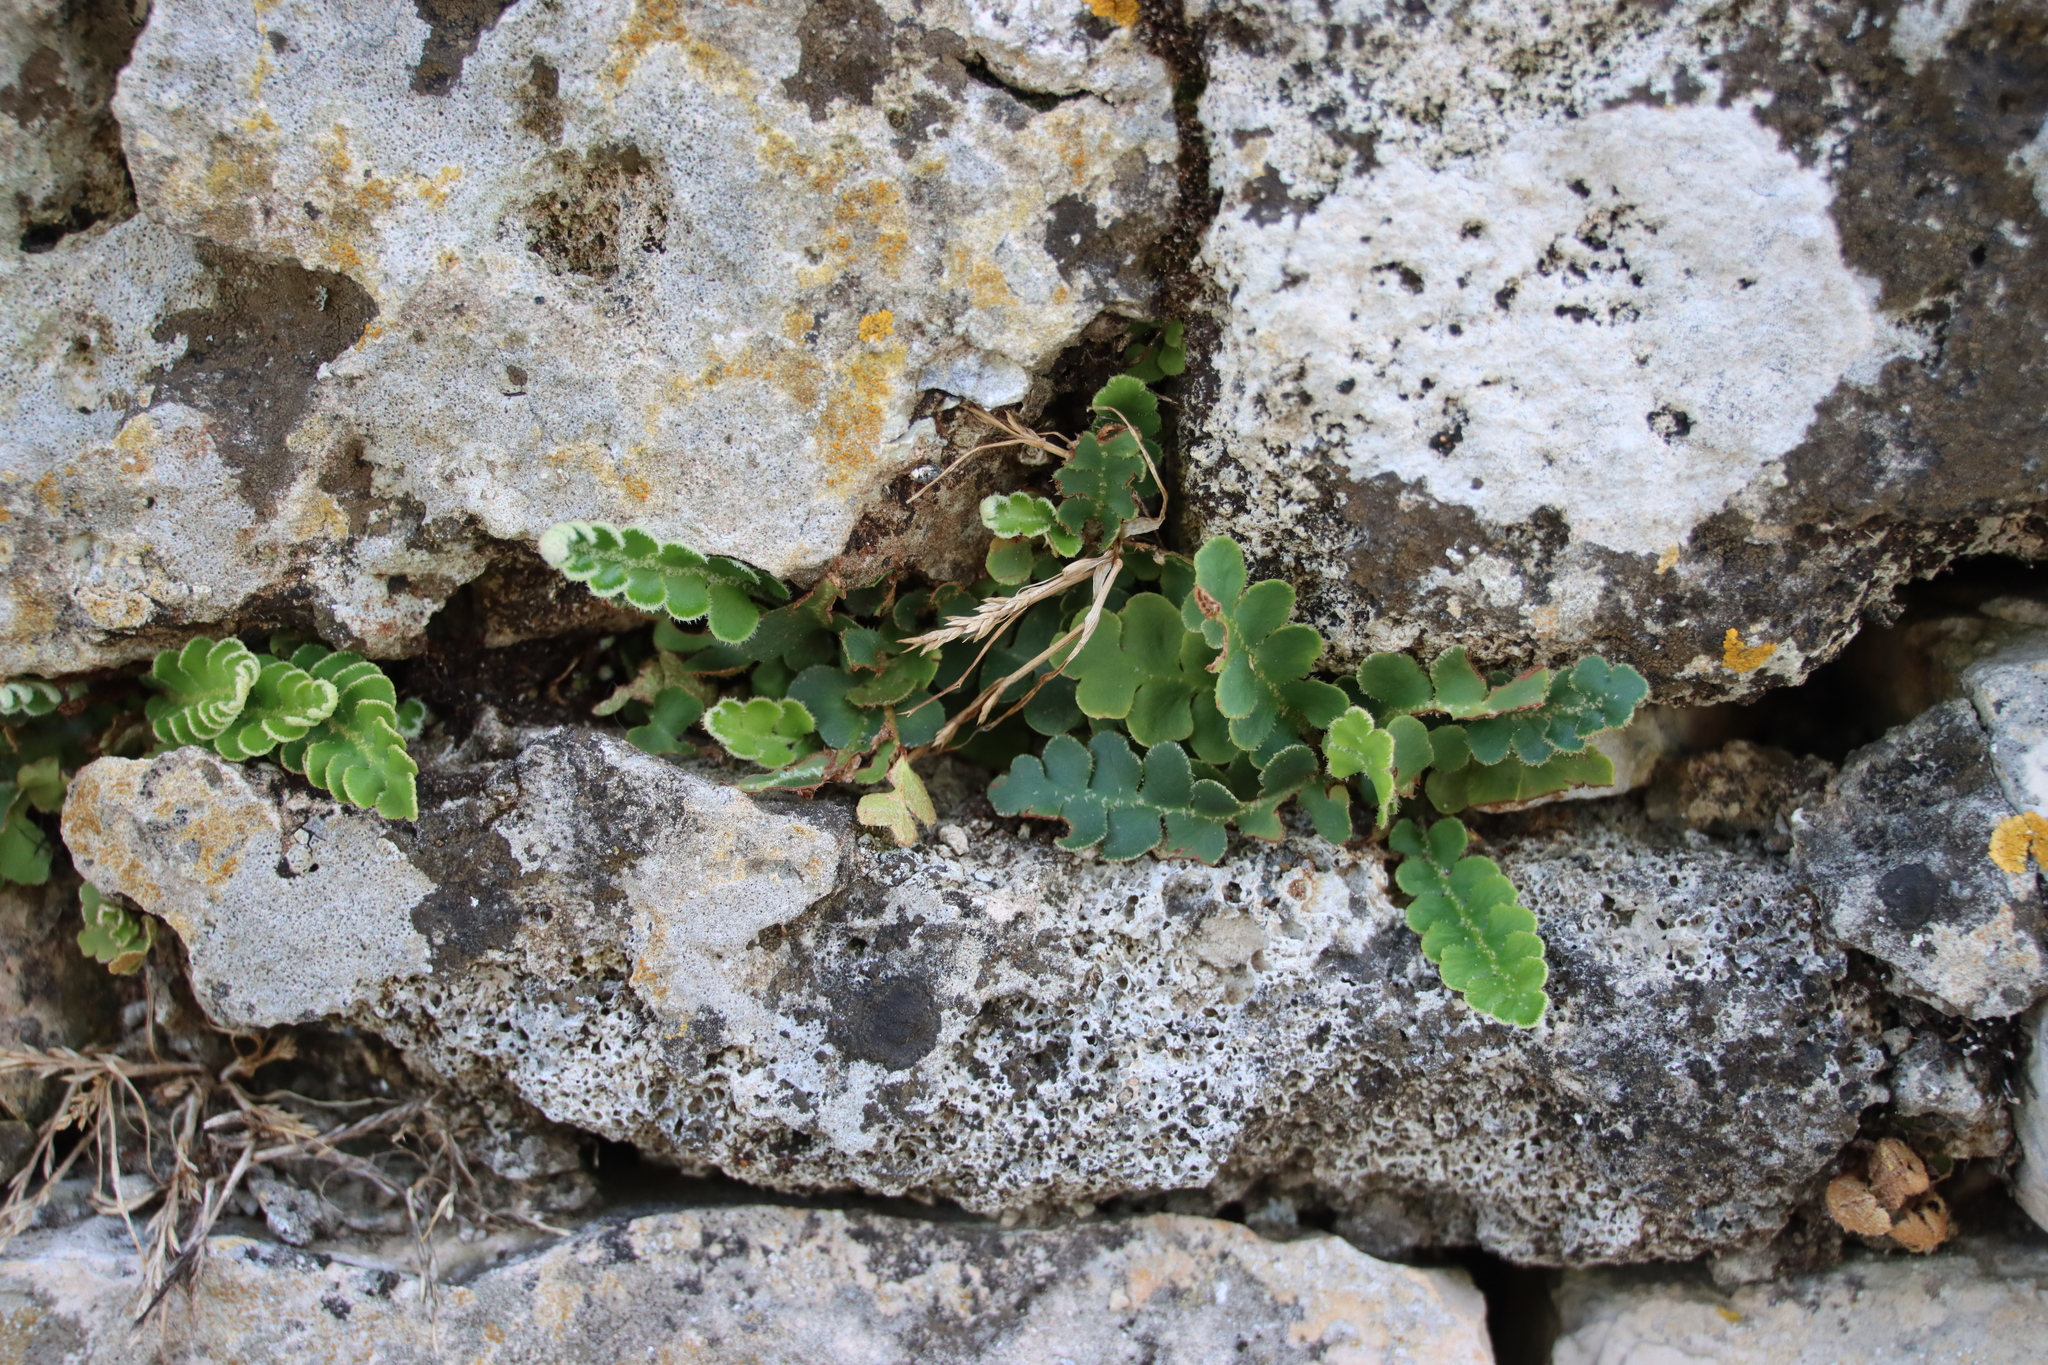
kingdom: Plantae
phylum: Tracheophyta
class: Polypodiopsida
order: Polypodiales
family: Aspleniaceae
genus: Asplenium
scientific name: Asplenium ceterach
